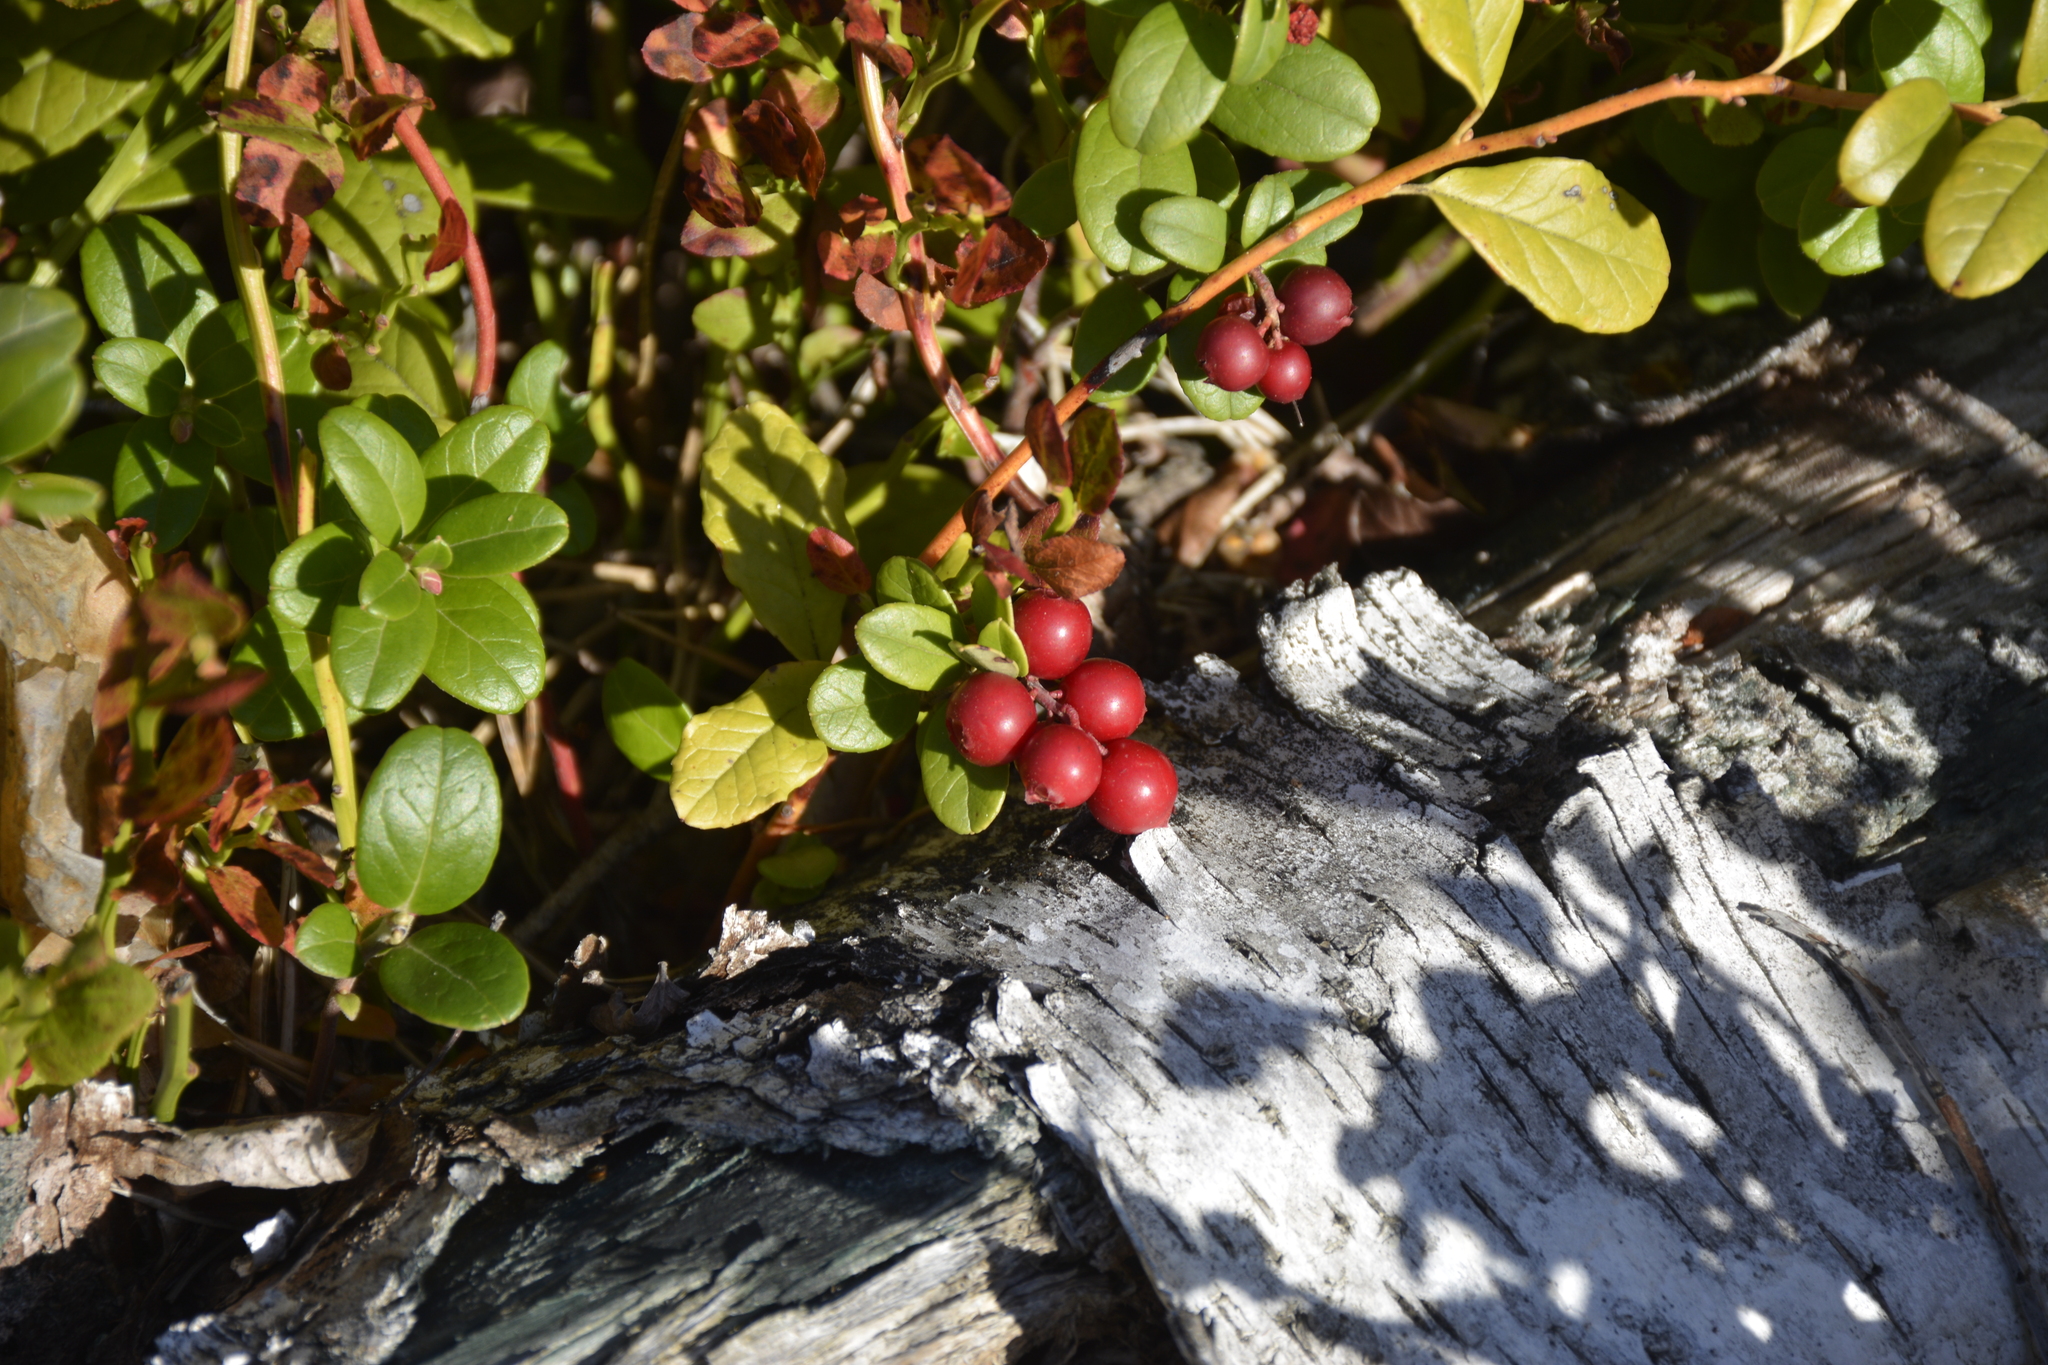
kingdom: Plantae
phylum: Tracheophyta
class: Magnoliopsida
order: Ericales
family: Ericaceae
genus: Vaccinium
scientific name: Vaccinium vitis-idaea
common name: Cowberry
